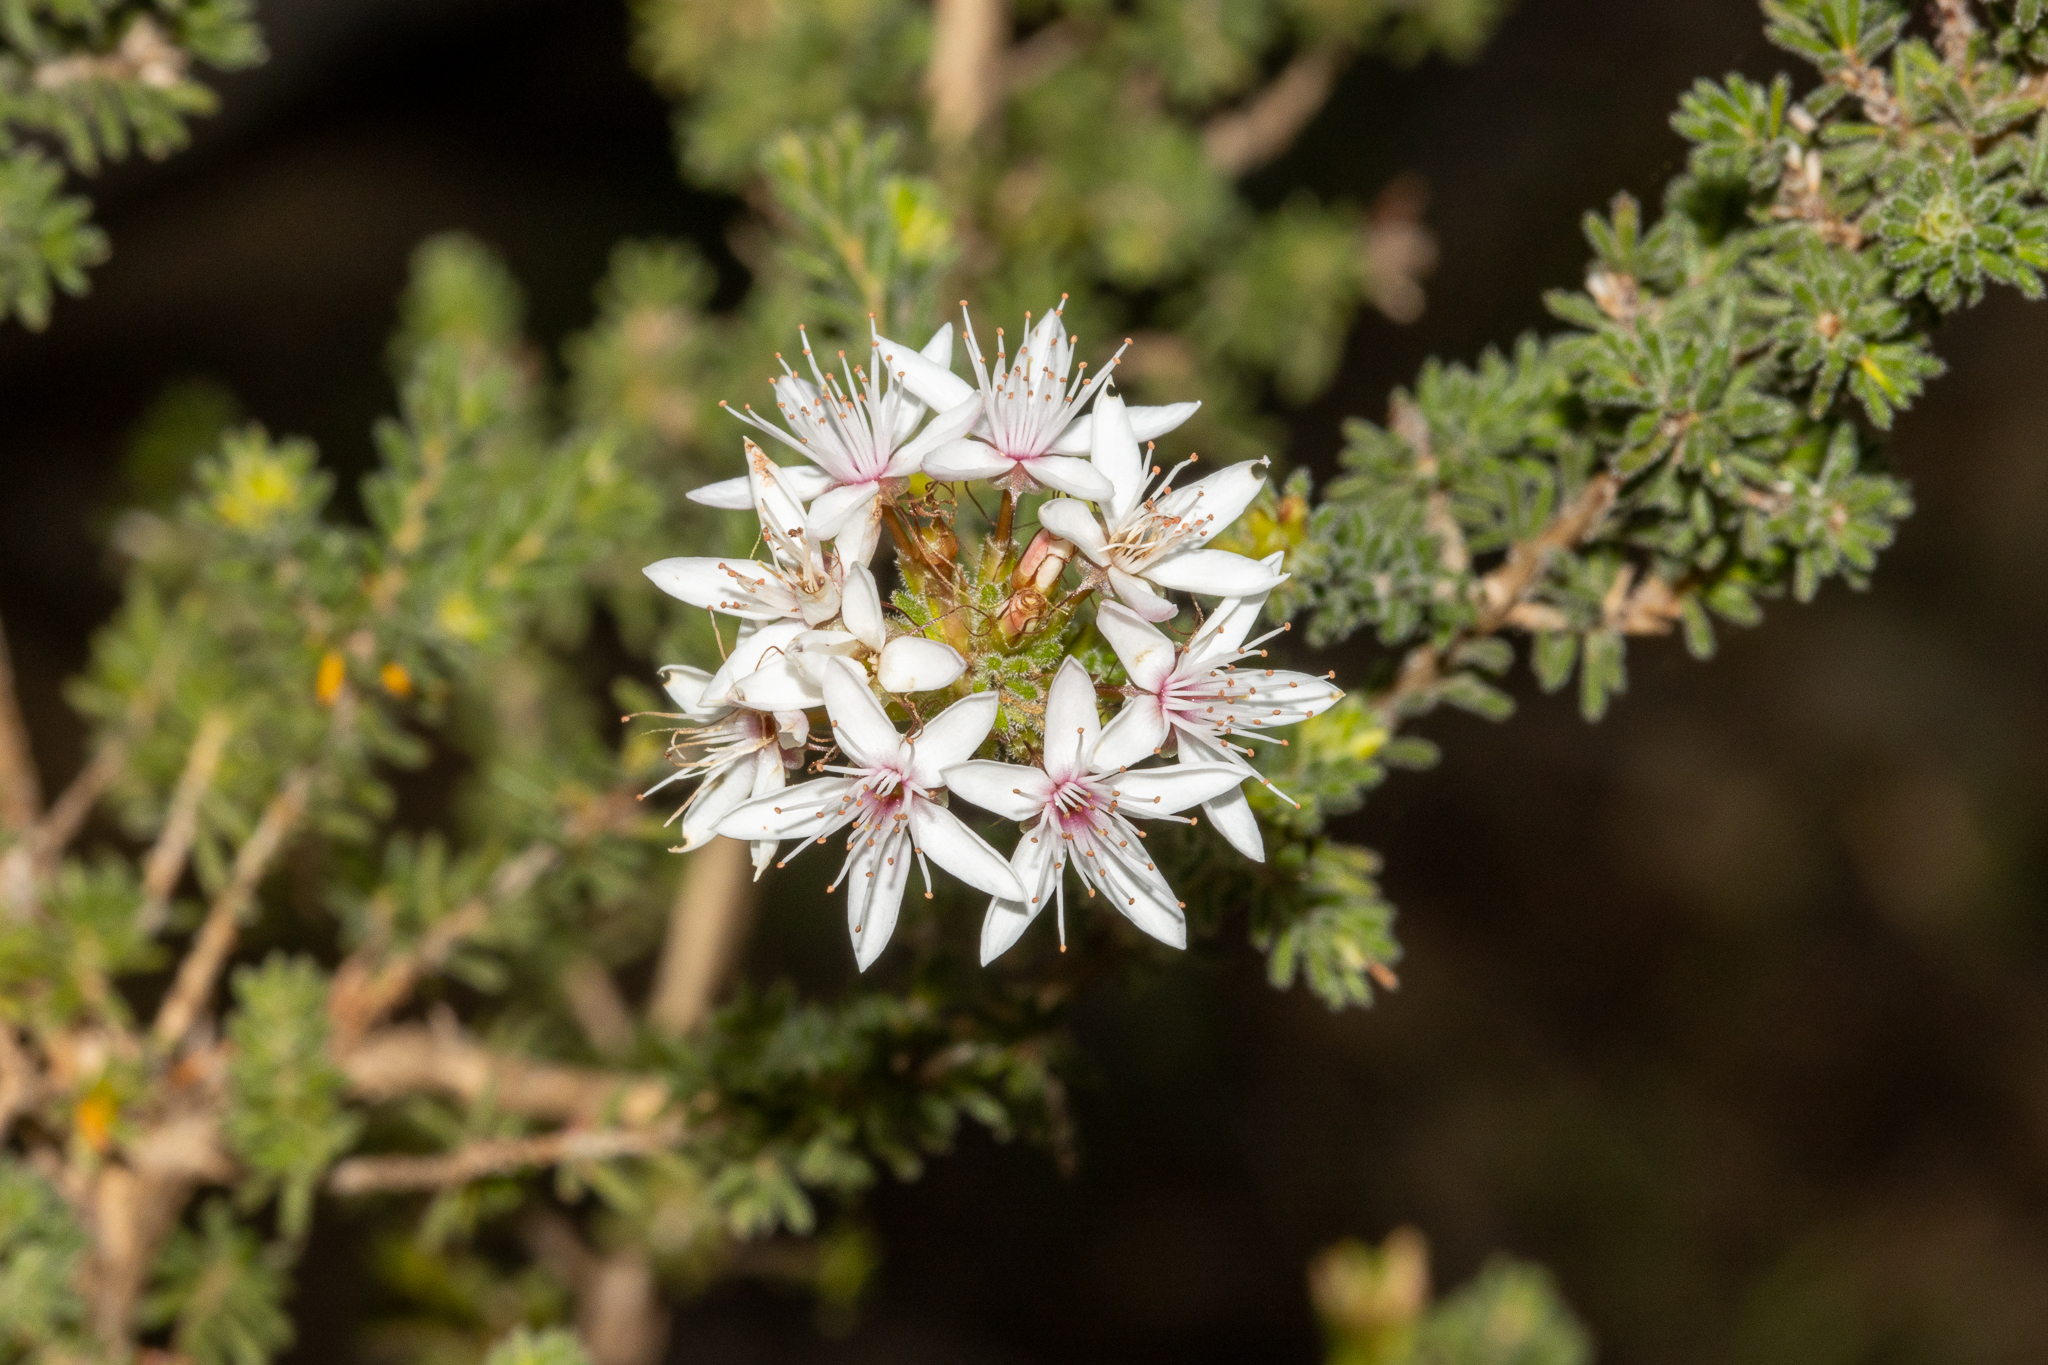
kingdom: Plantae
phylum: Tracheophyta
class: Magnoliopsida
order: Myrtales
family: Myrtaceae
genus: Calytrix
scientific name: Calytrix tetragona
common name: Common fringe myrtle
